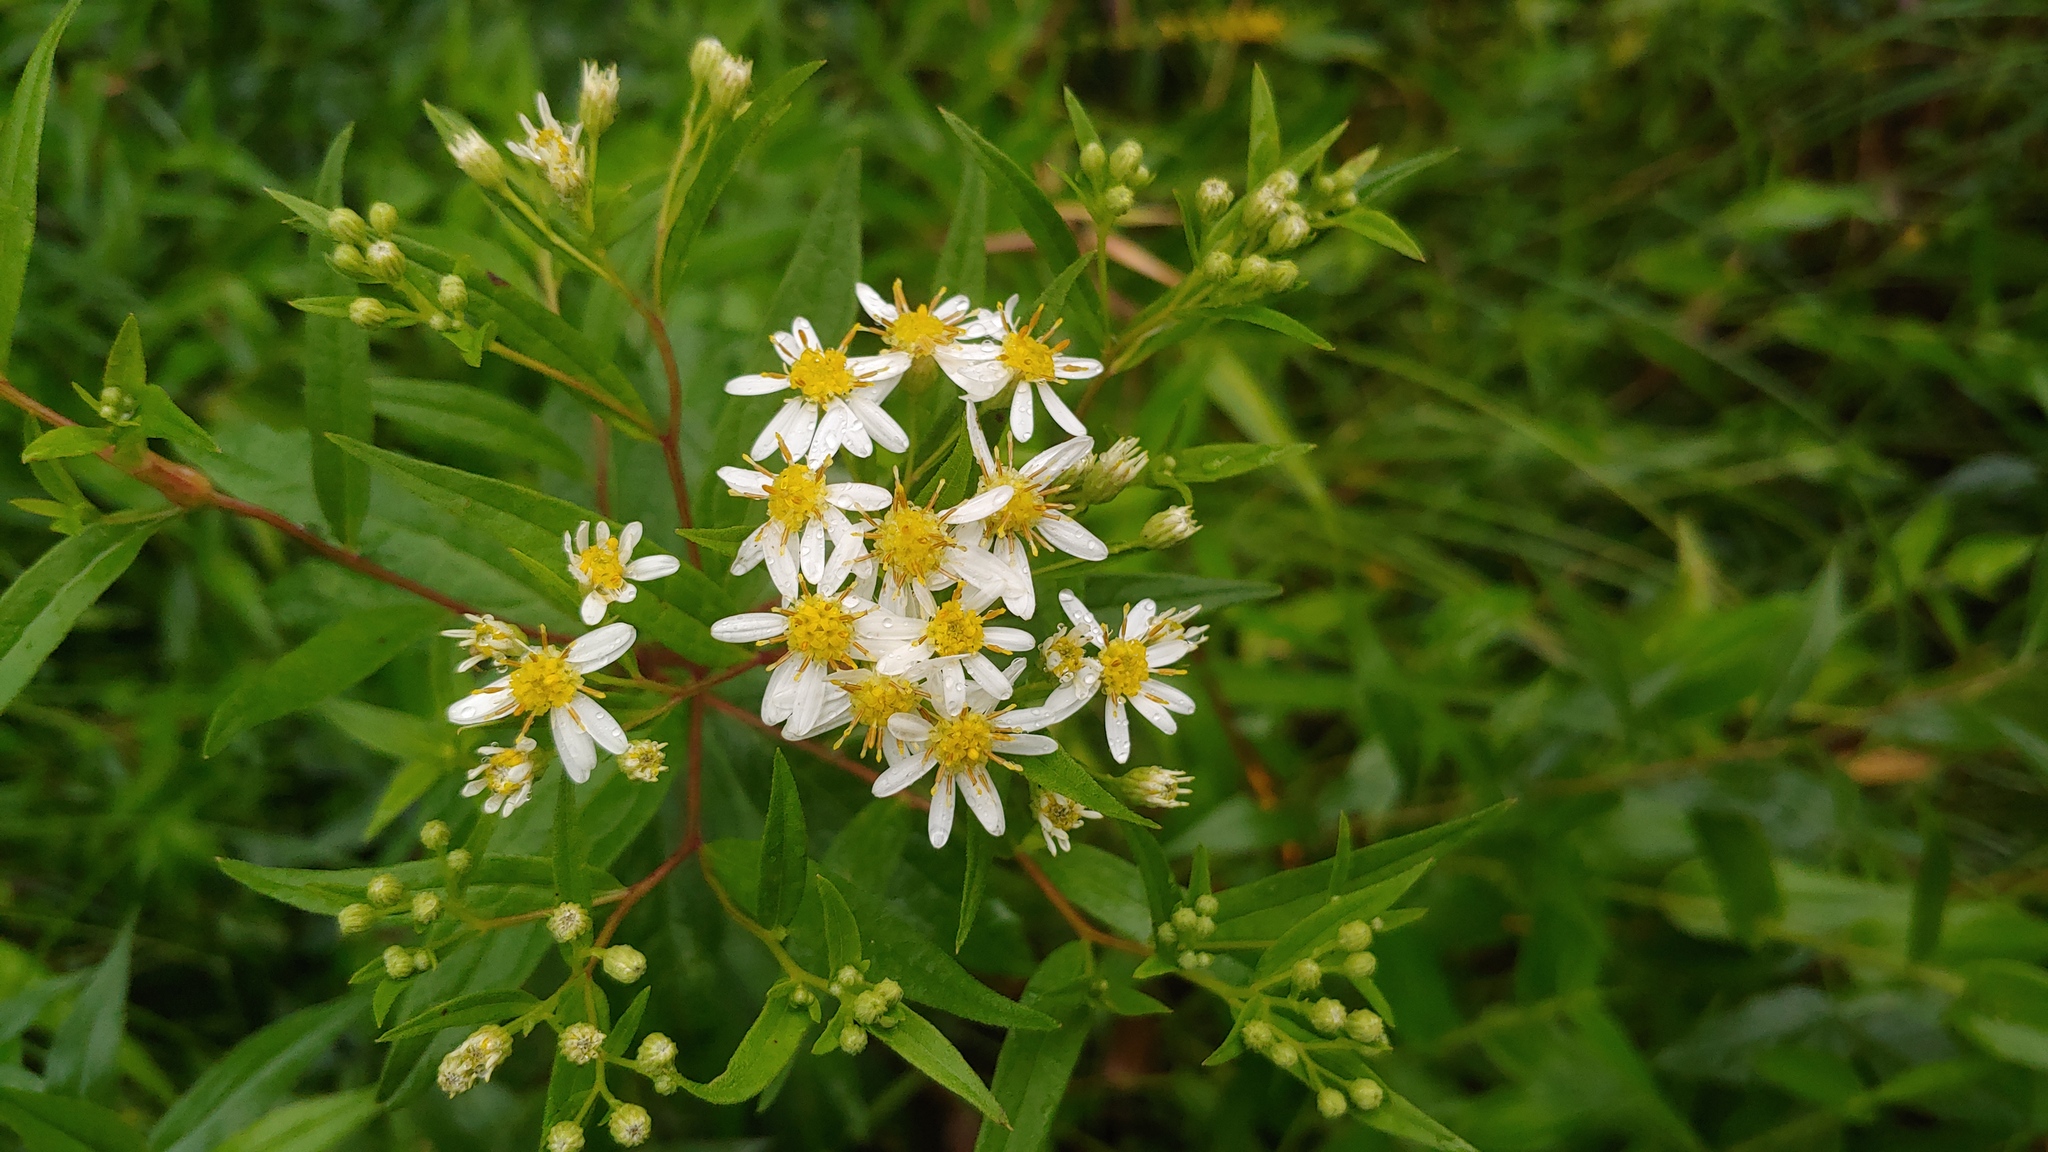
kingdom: Plantae
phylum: Tracheophyta
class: Magnoliopsida
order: Asterales
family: Asteraceae
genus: Doellingeria
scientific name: Doellingeria umbellata
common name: Flat-top white aster
